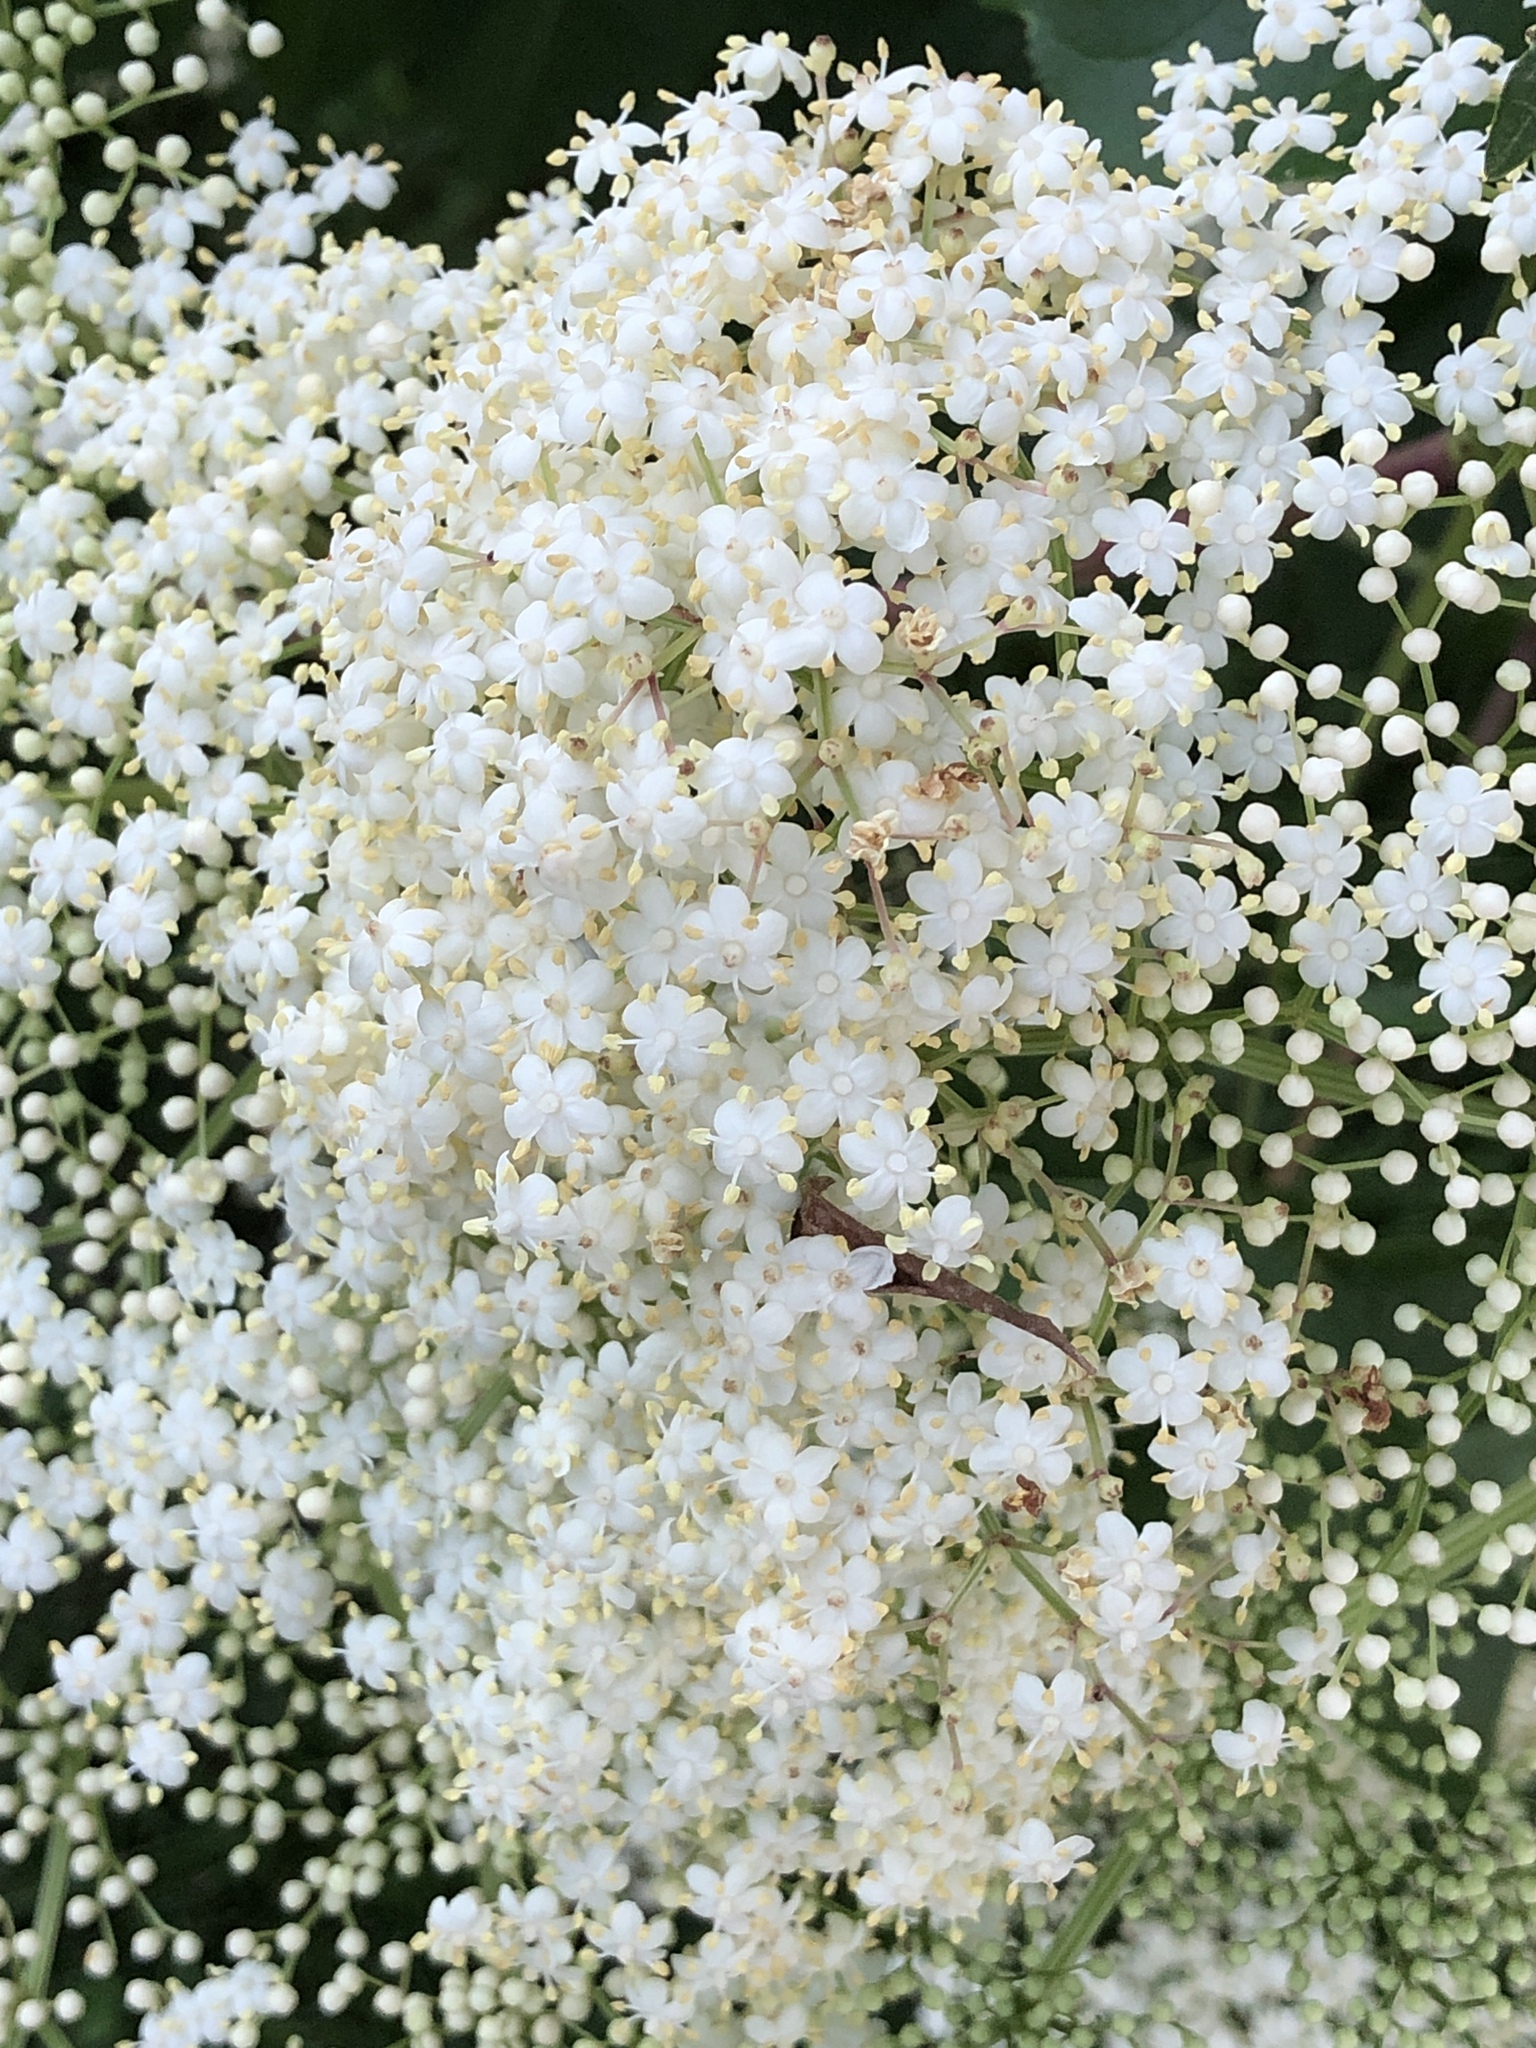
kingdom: Plantae
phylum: Tracheophyta
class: Magnoliopsida
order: Dipsacales
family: Viburnaceae
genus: Sambucus
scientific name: Sambucus canadensis
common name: American elder
